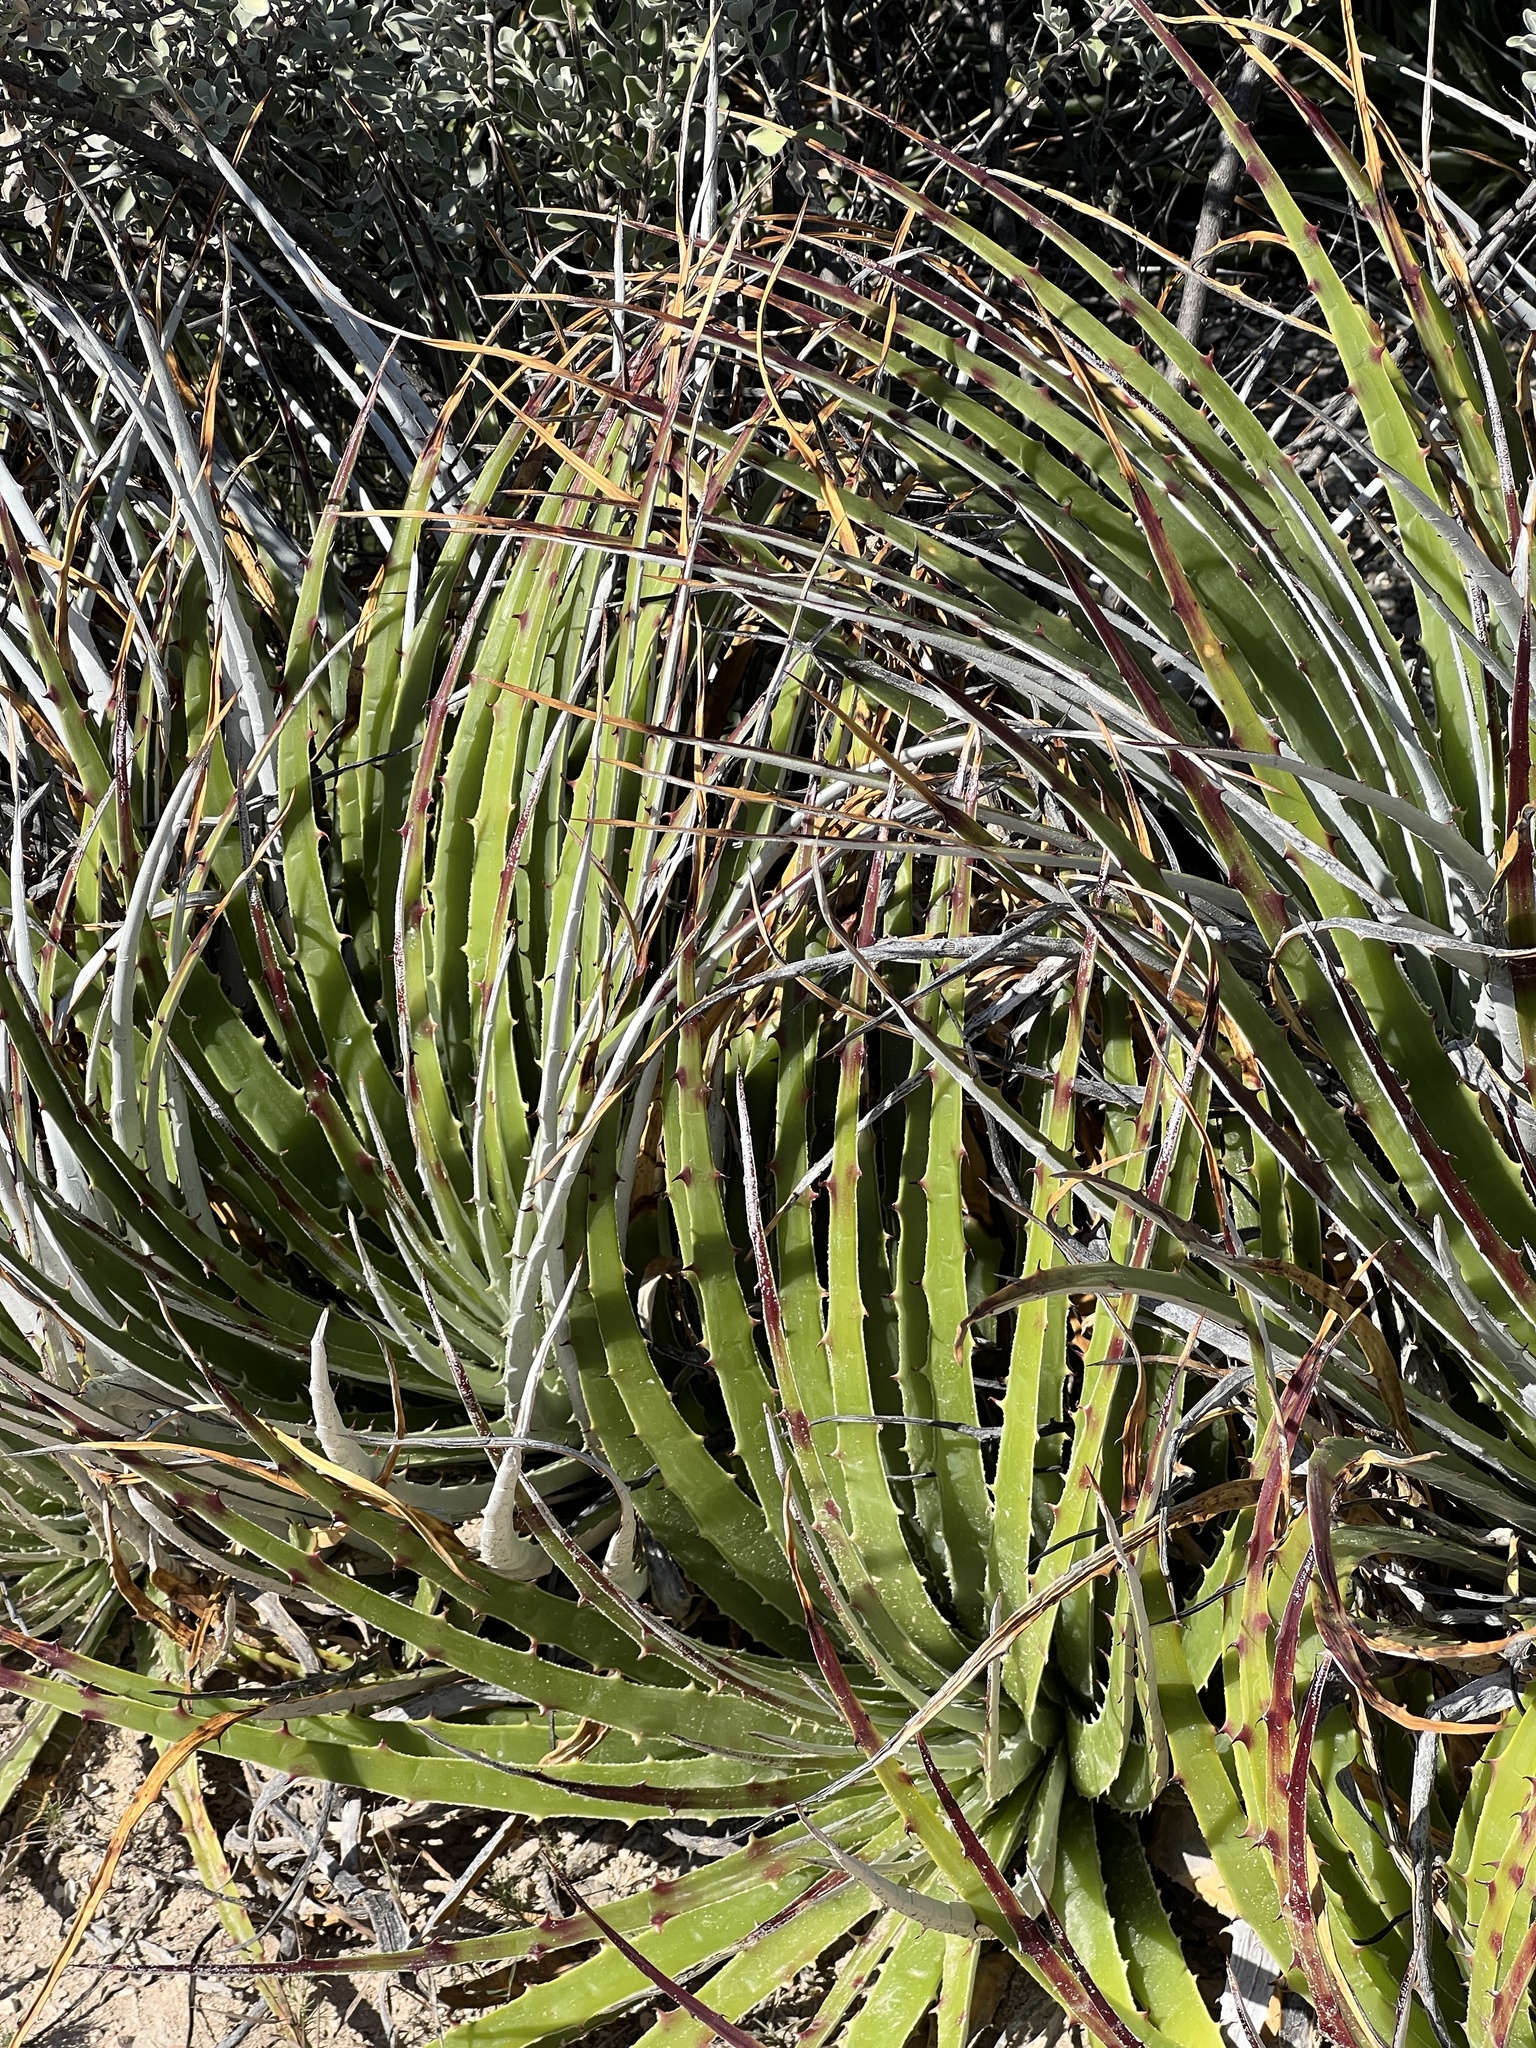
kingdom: Plantae
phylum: Tracheophyta
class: Liliopsida
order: Poales
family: Bromeliaceae
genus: Hechtia
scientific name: Hechtia texensis
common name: False agave
